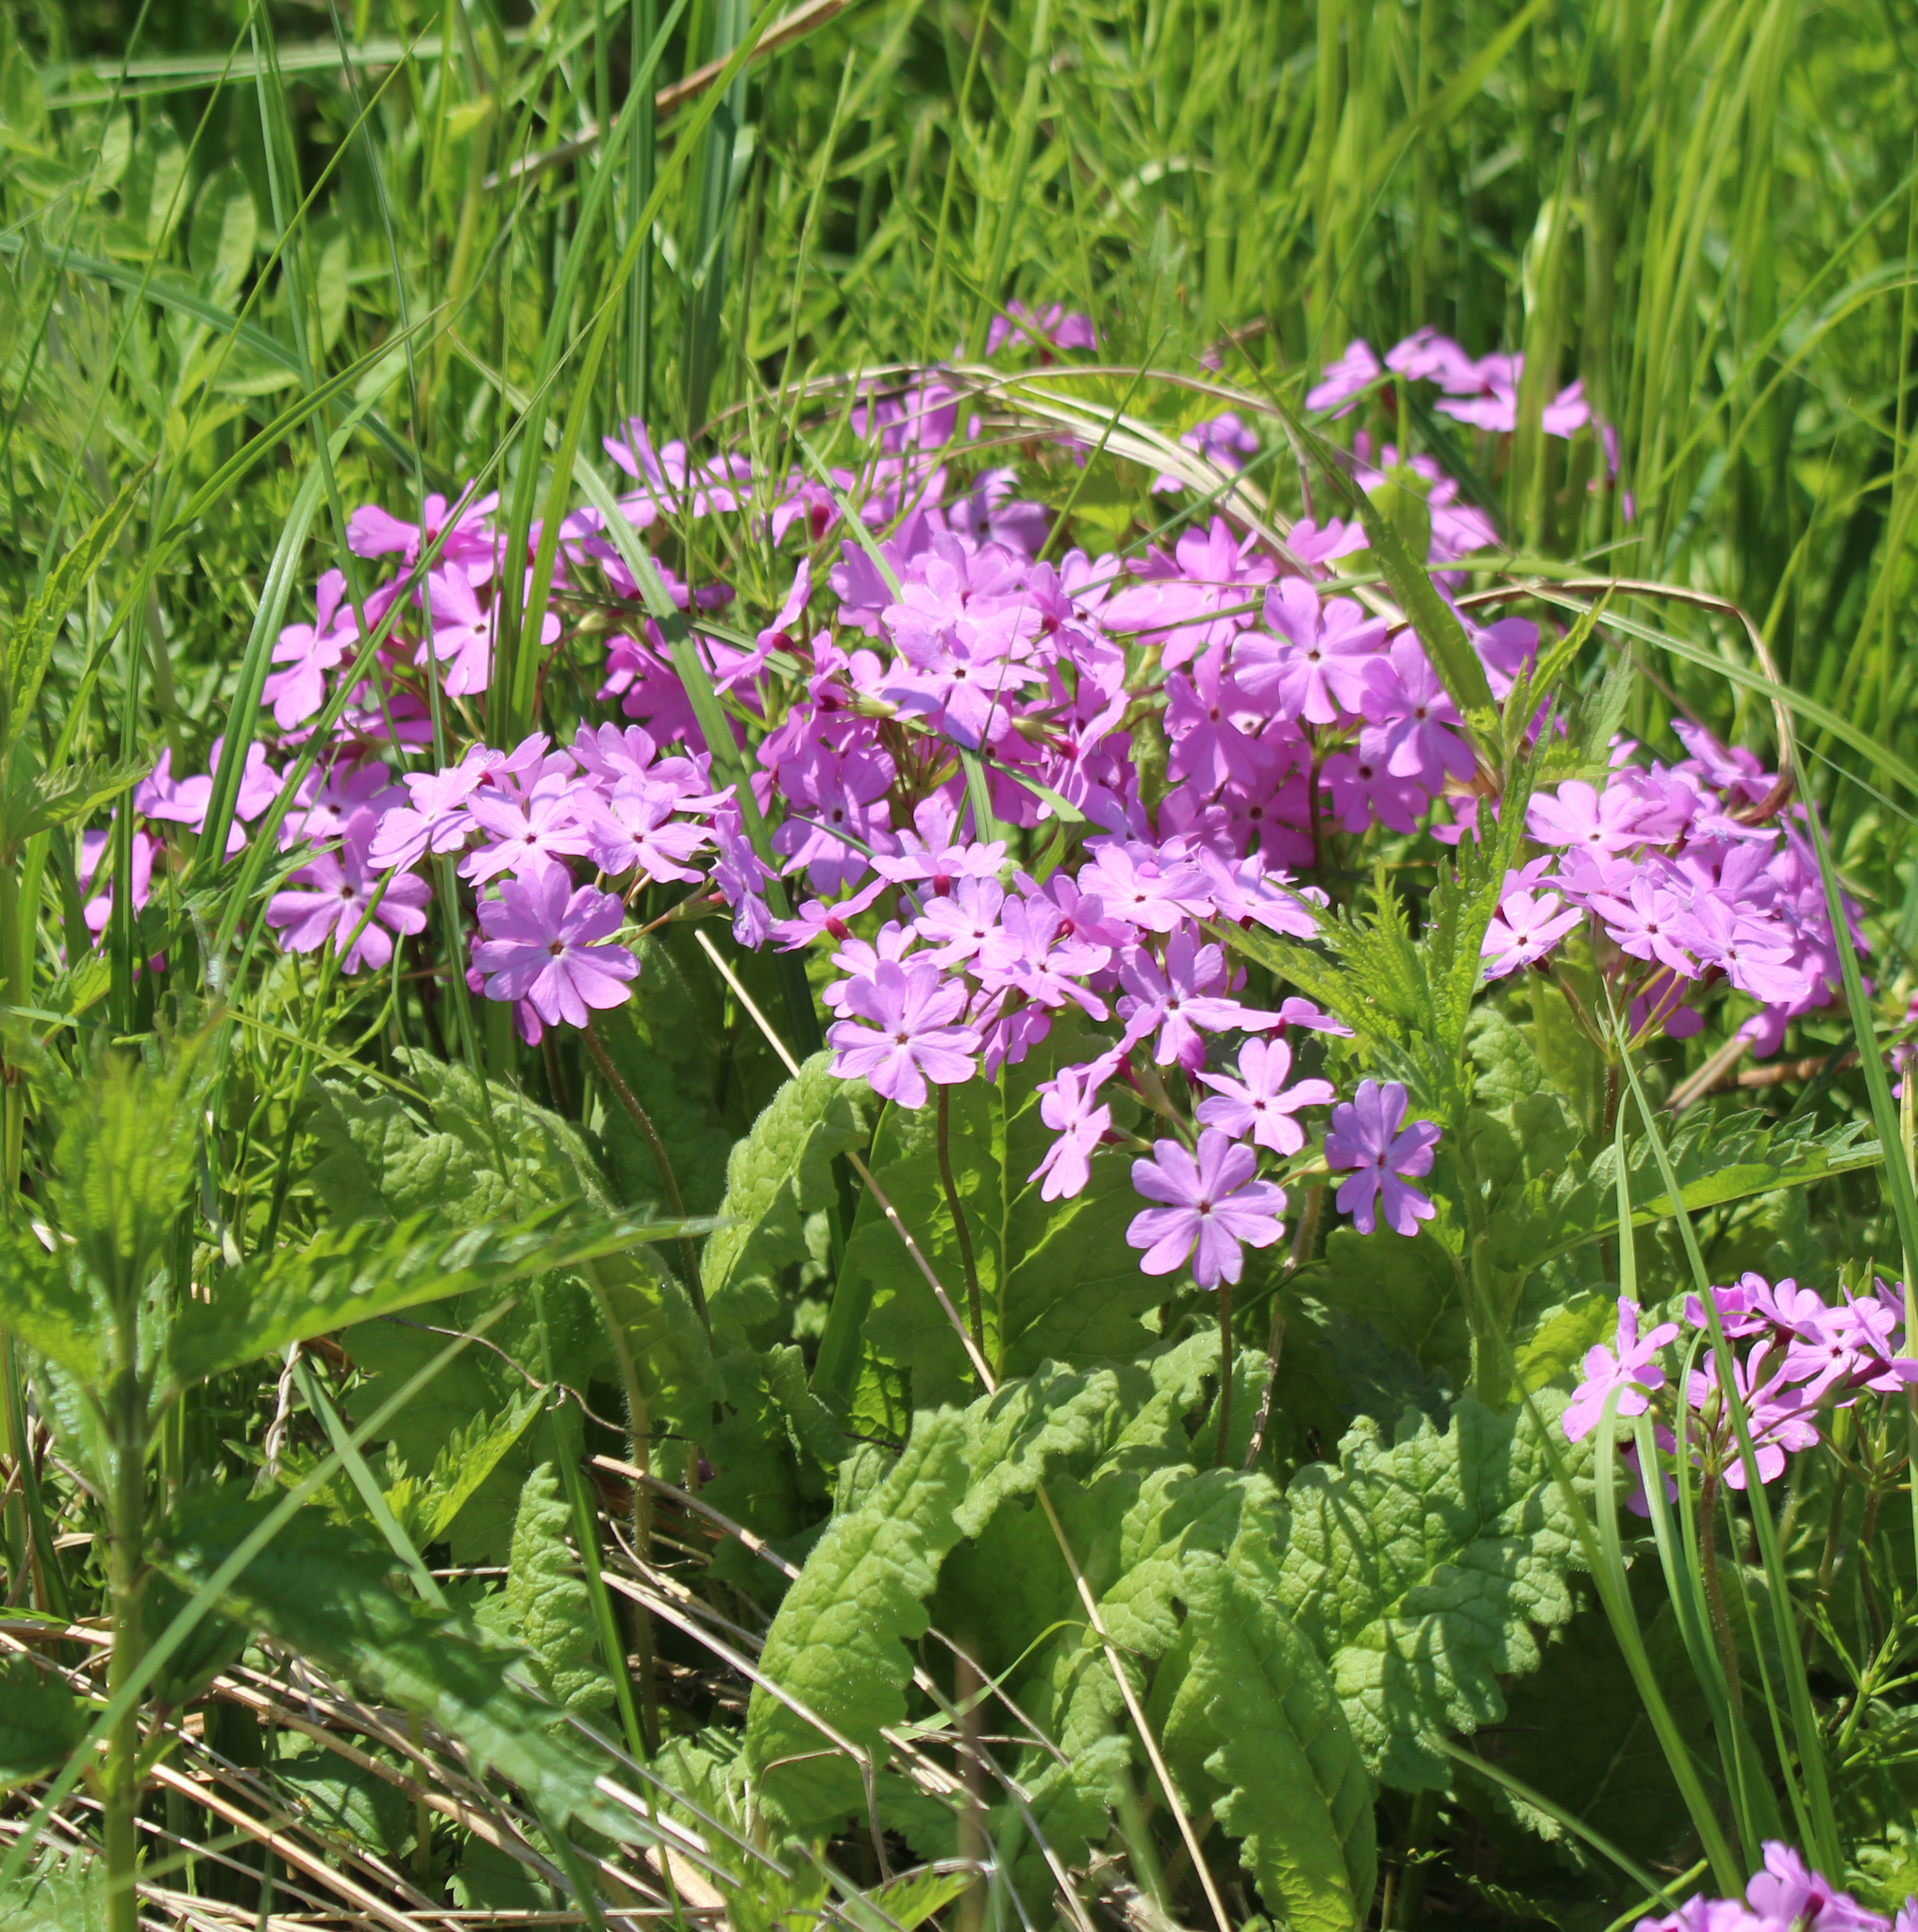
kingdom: Plantae
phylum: Tracheophyta
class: Magnoliopsida
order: Ericales
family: Primulaceae
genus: Primula
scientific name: Primula sieboldii
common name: Japanese primrose
